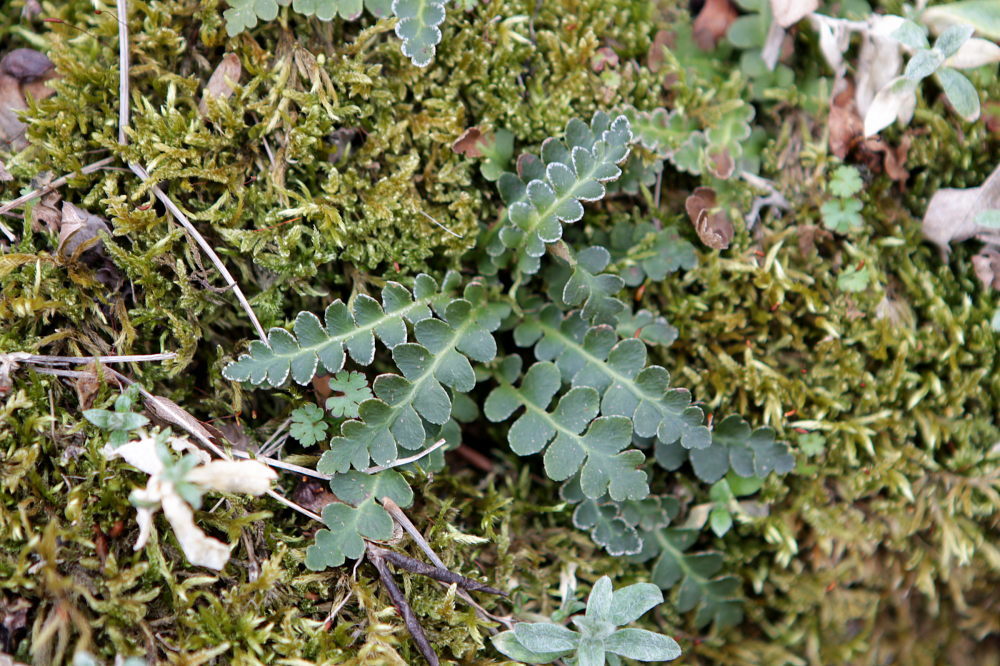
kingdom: Plantae
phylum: Tracheophyta
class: Polypodiopsida
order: Polypodiales
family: Aspleniaceae
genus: Asplenium
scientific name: Asplenium ceterach
